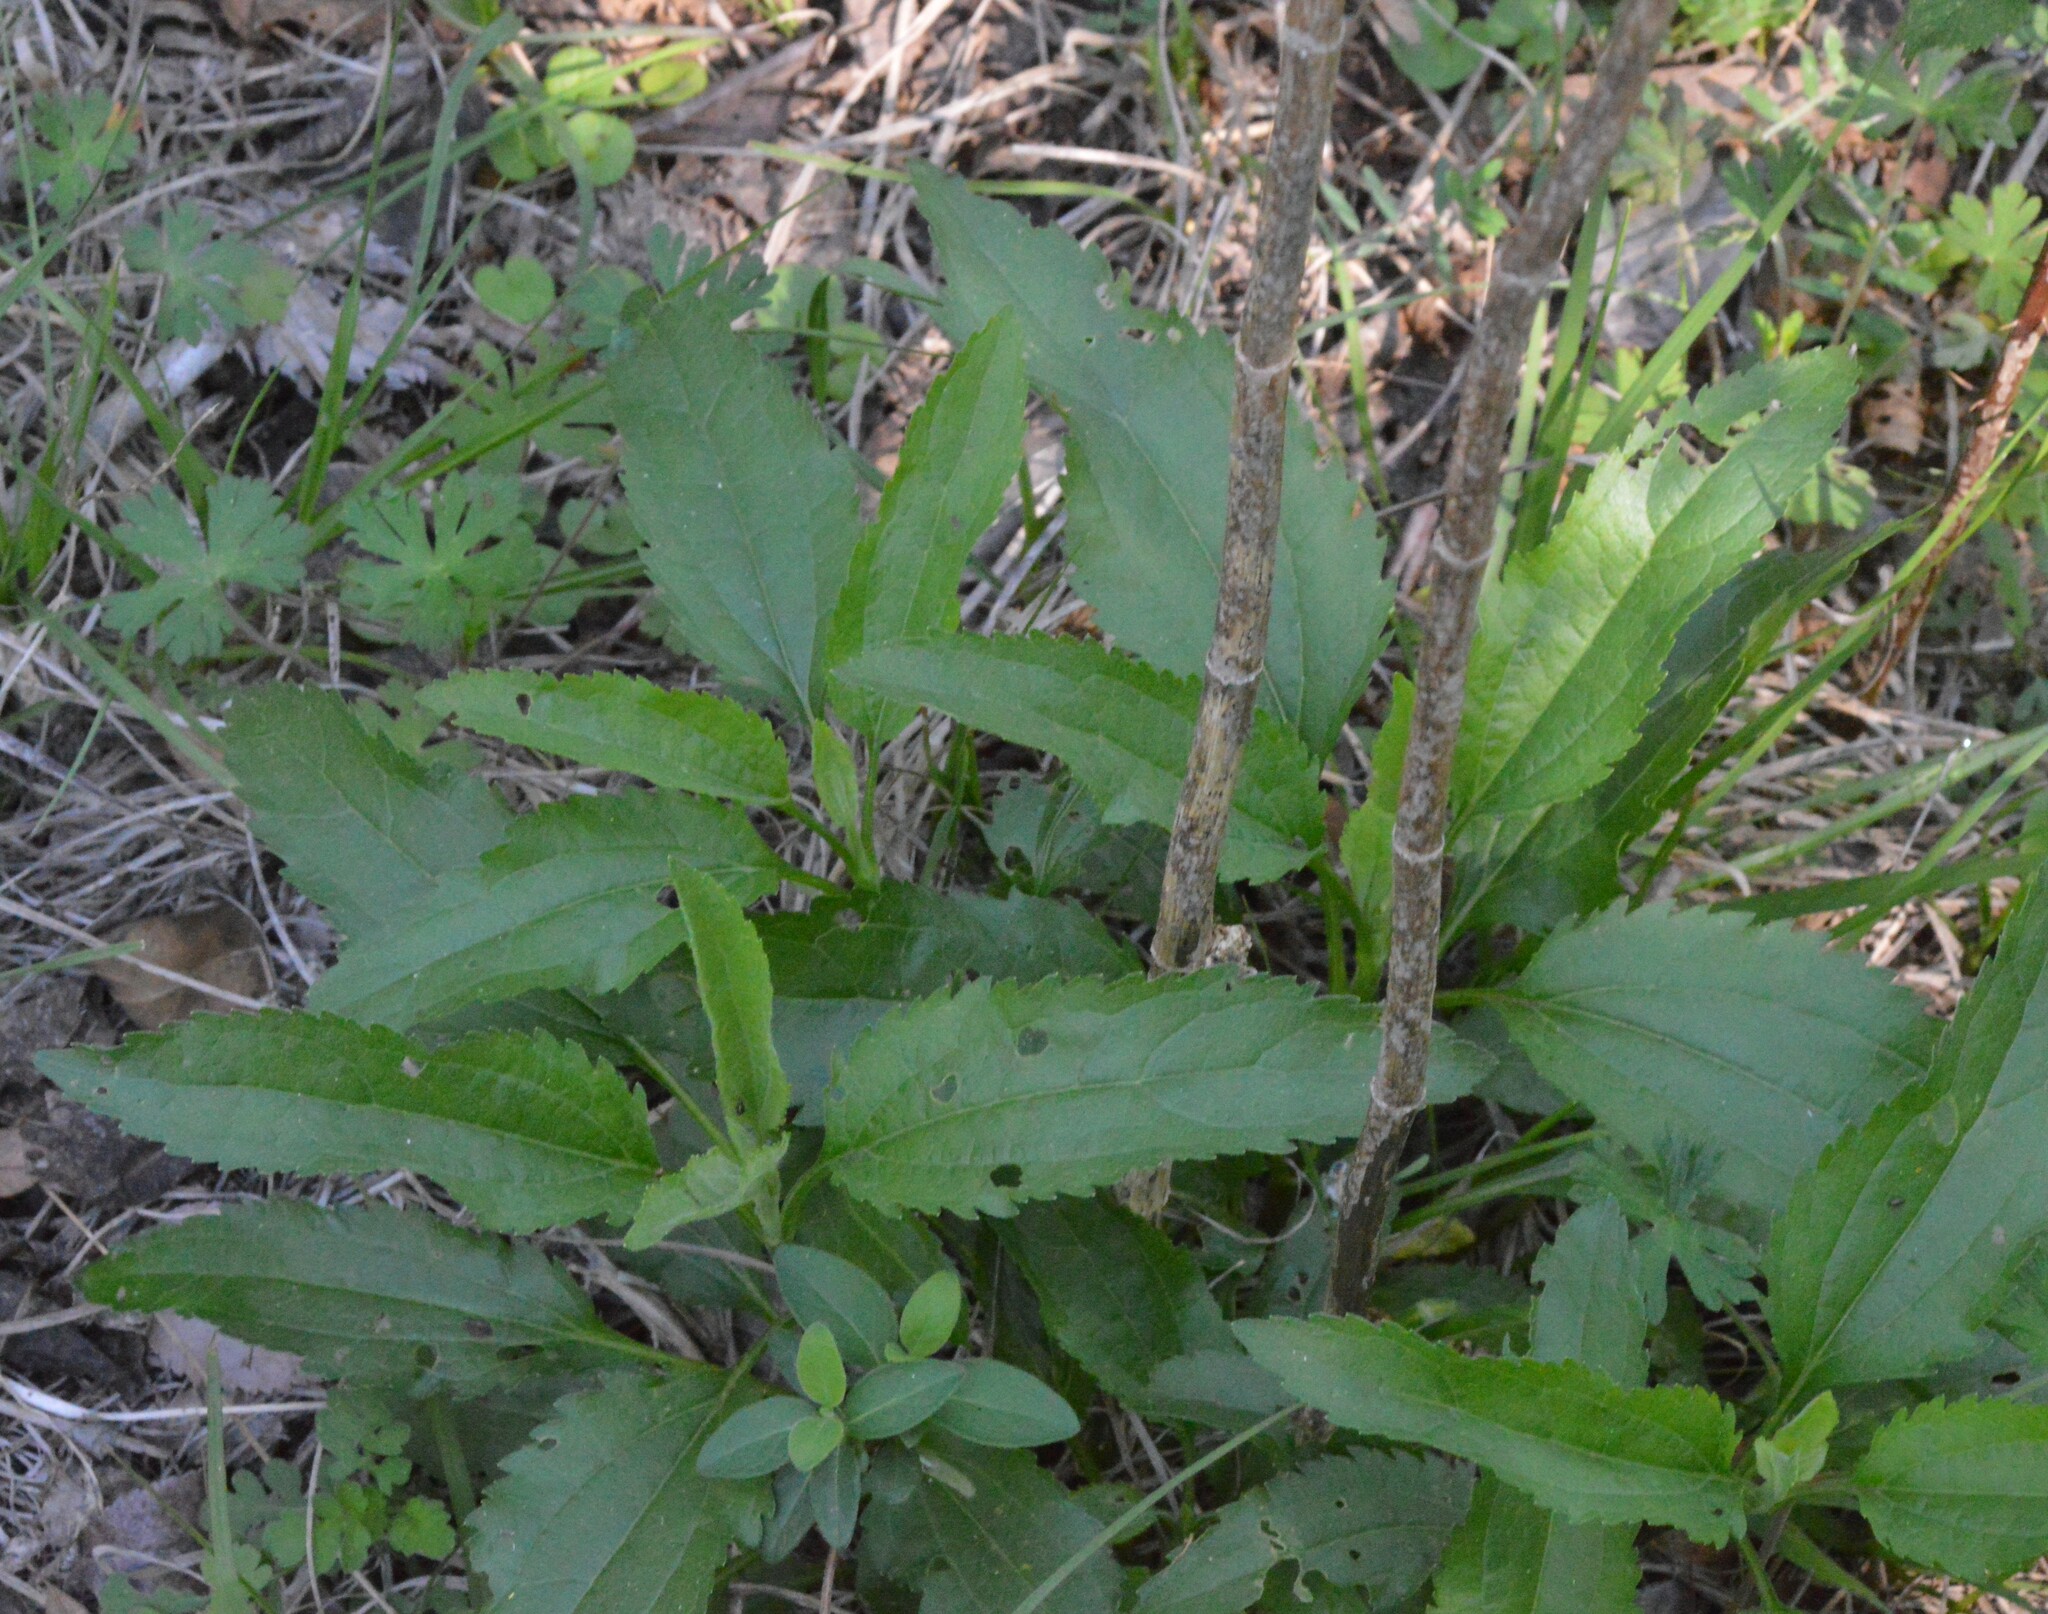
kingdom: Plantae
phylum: Tracheophyta
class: Magnoliopsida
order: Asterales
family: Asteraceae
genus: Eupatorium
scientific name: Eupatorium serotinum
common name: Late boneset
